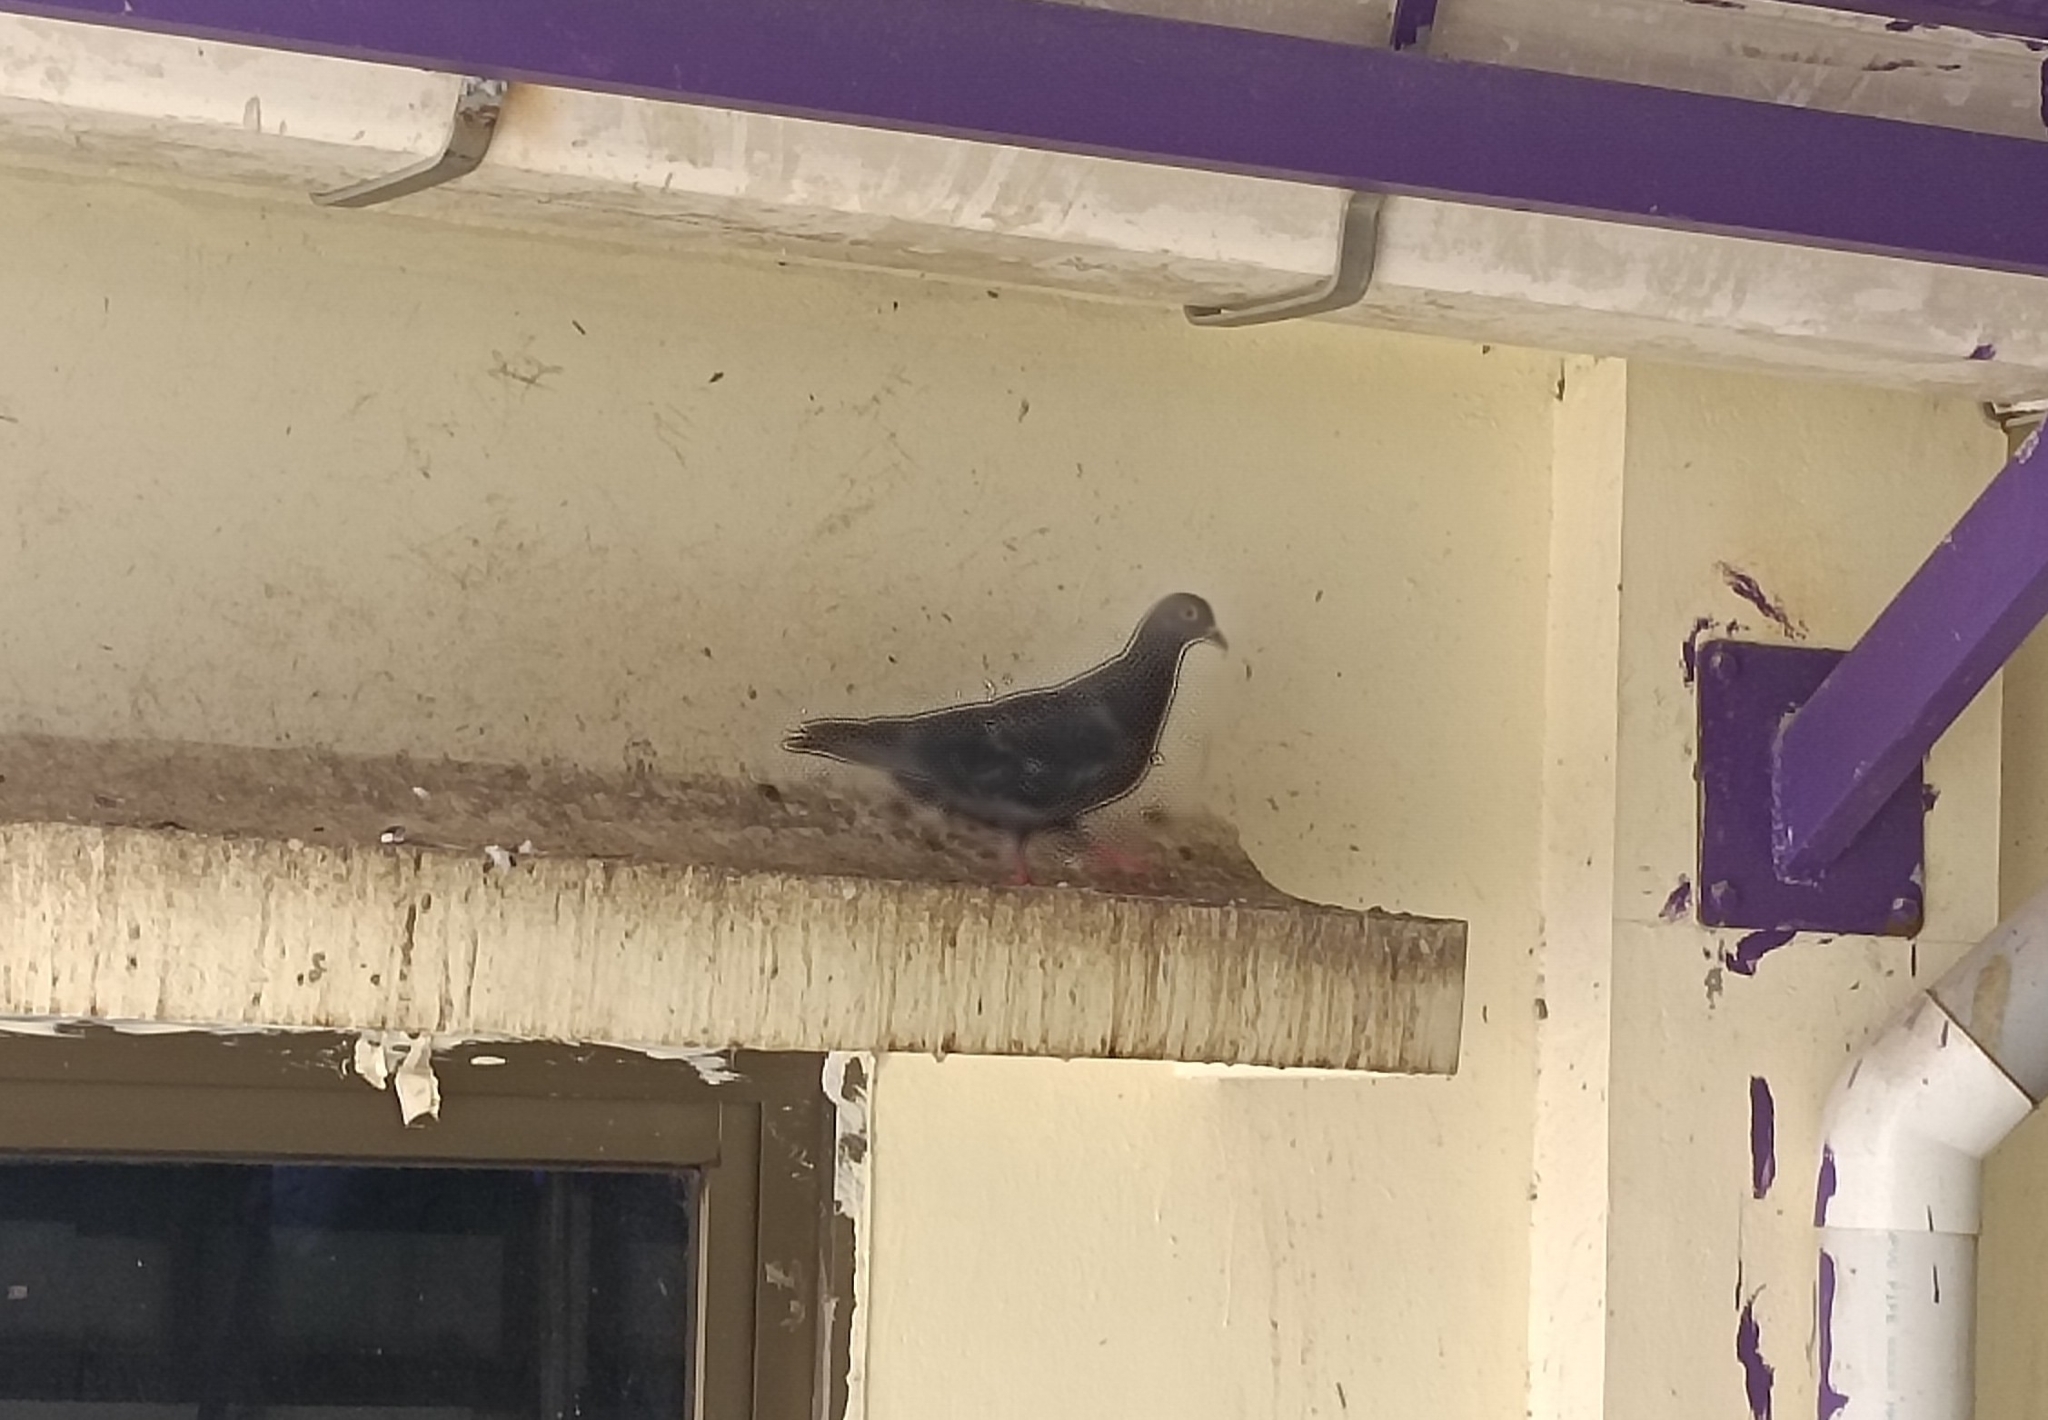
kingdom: Animalia
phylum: Chordata
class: Aves
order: Columbiformes
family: Columbidae
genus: Columba
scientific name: Columba livia
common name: Rock pigeon
